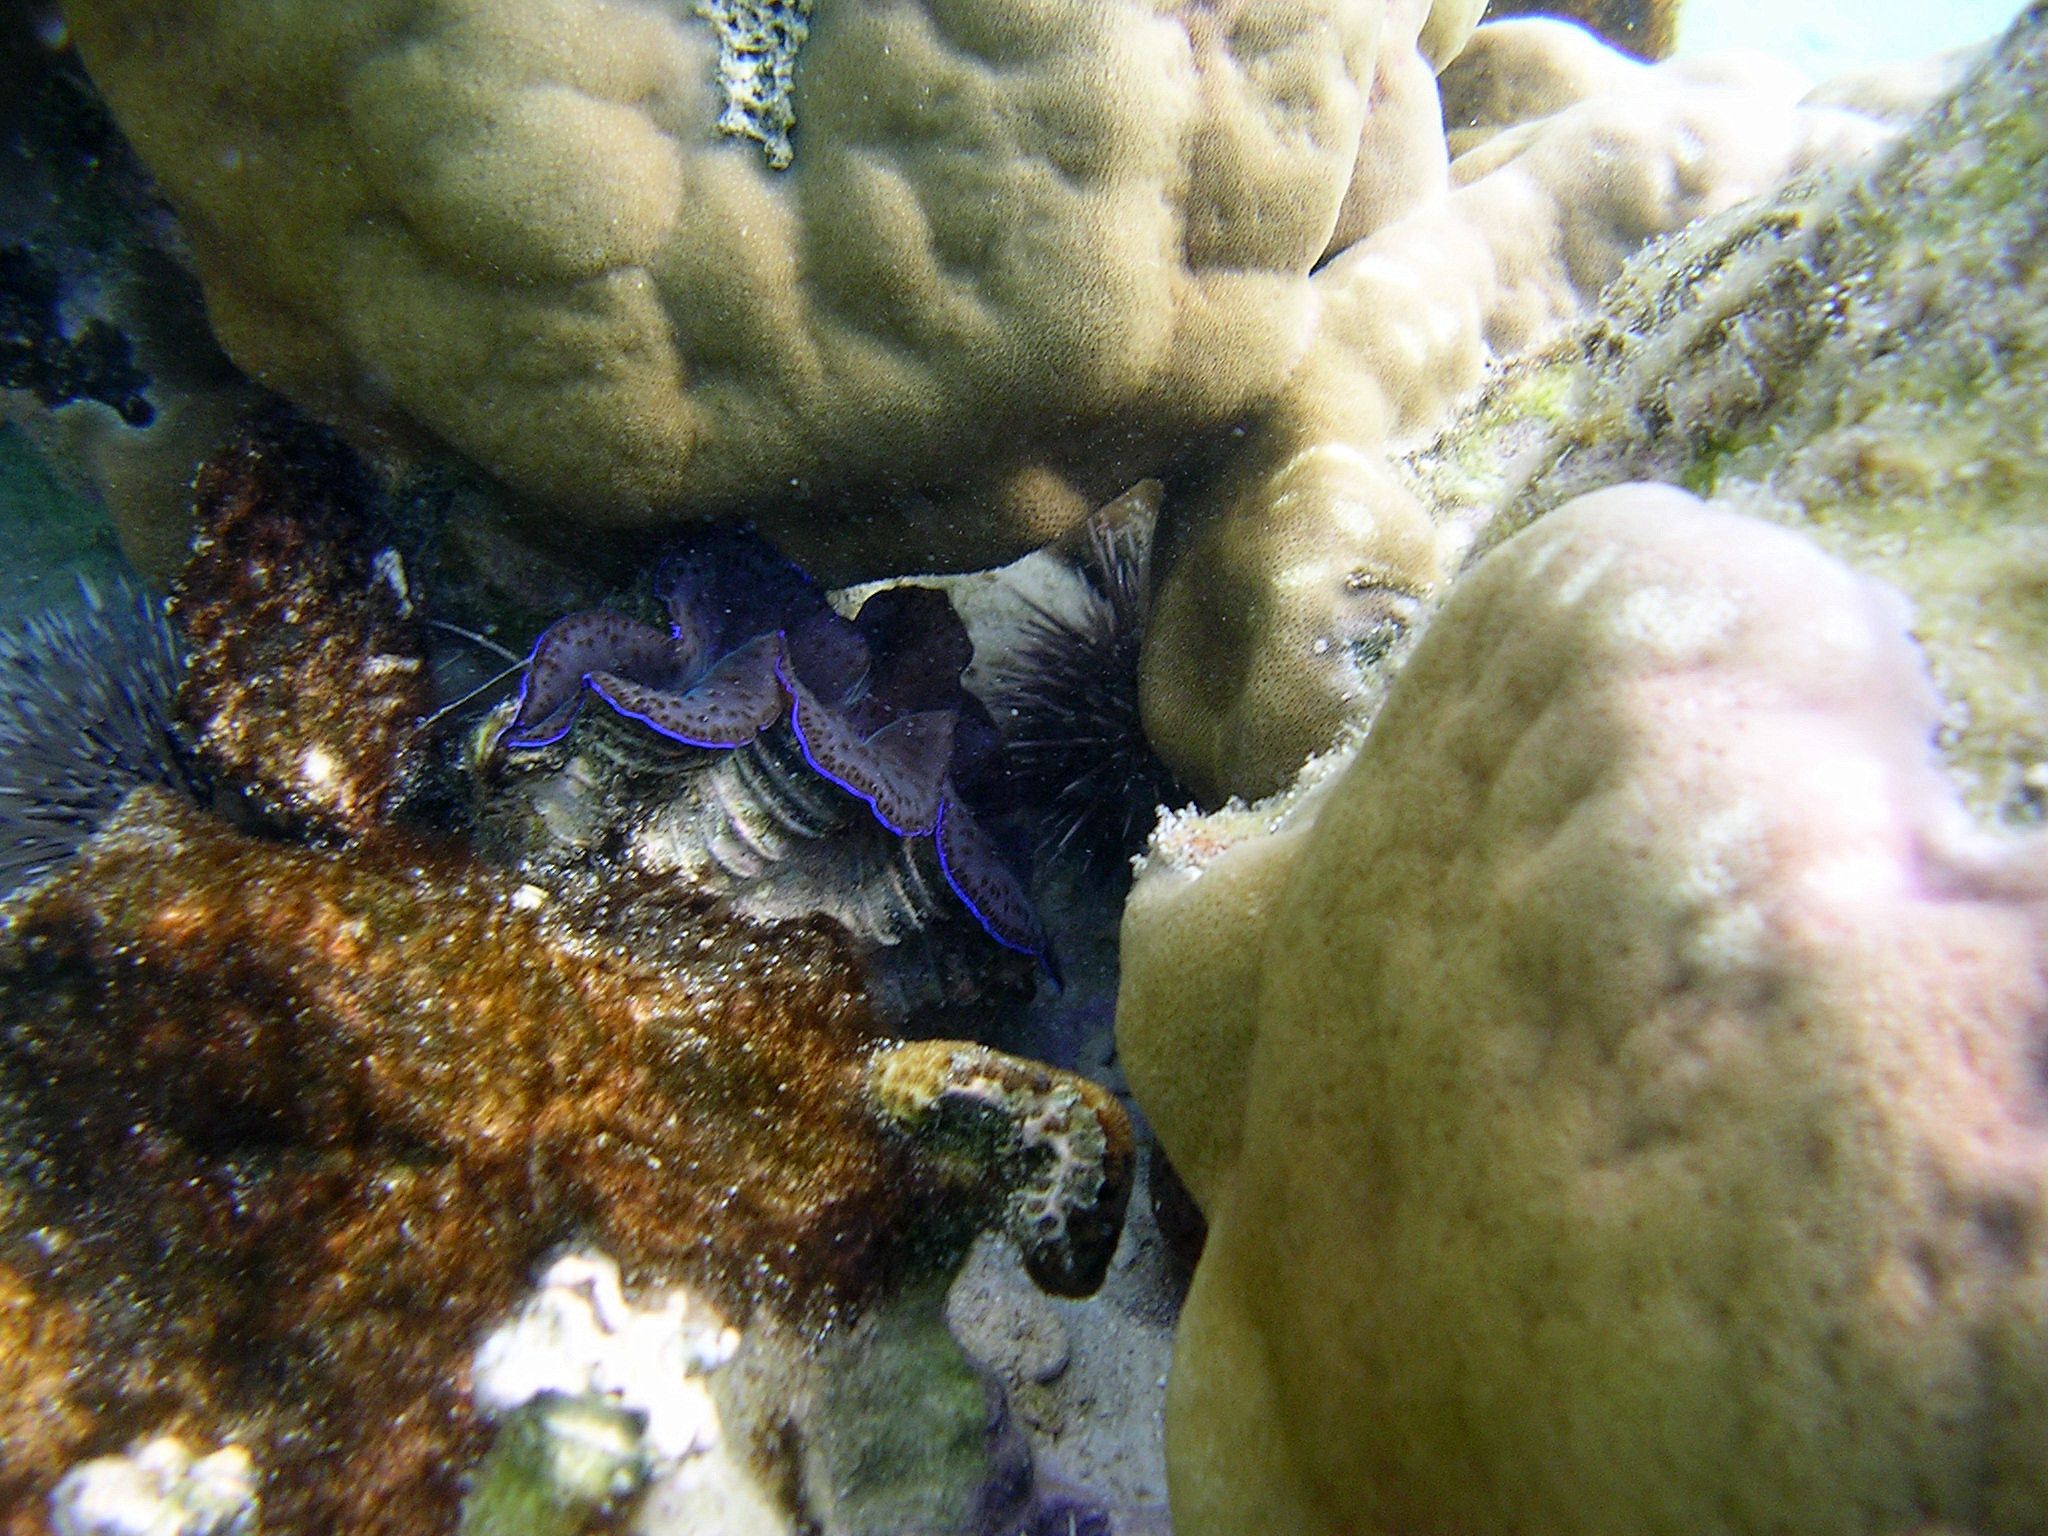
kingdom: Animalia
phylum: Mollusca
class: Bivalvia
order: Cardiida
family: Cardiidae
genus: Tridacna
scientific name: Tridacna maxima
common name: Small giant clam
